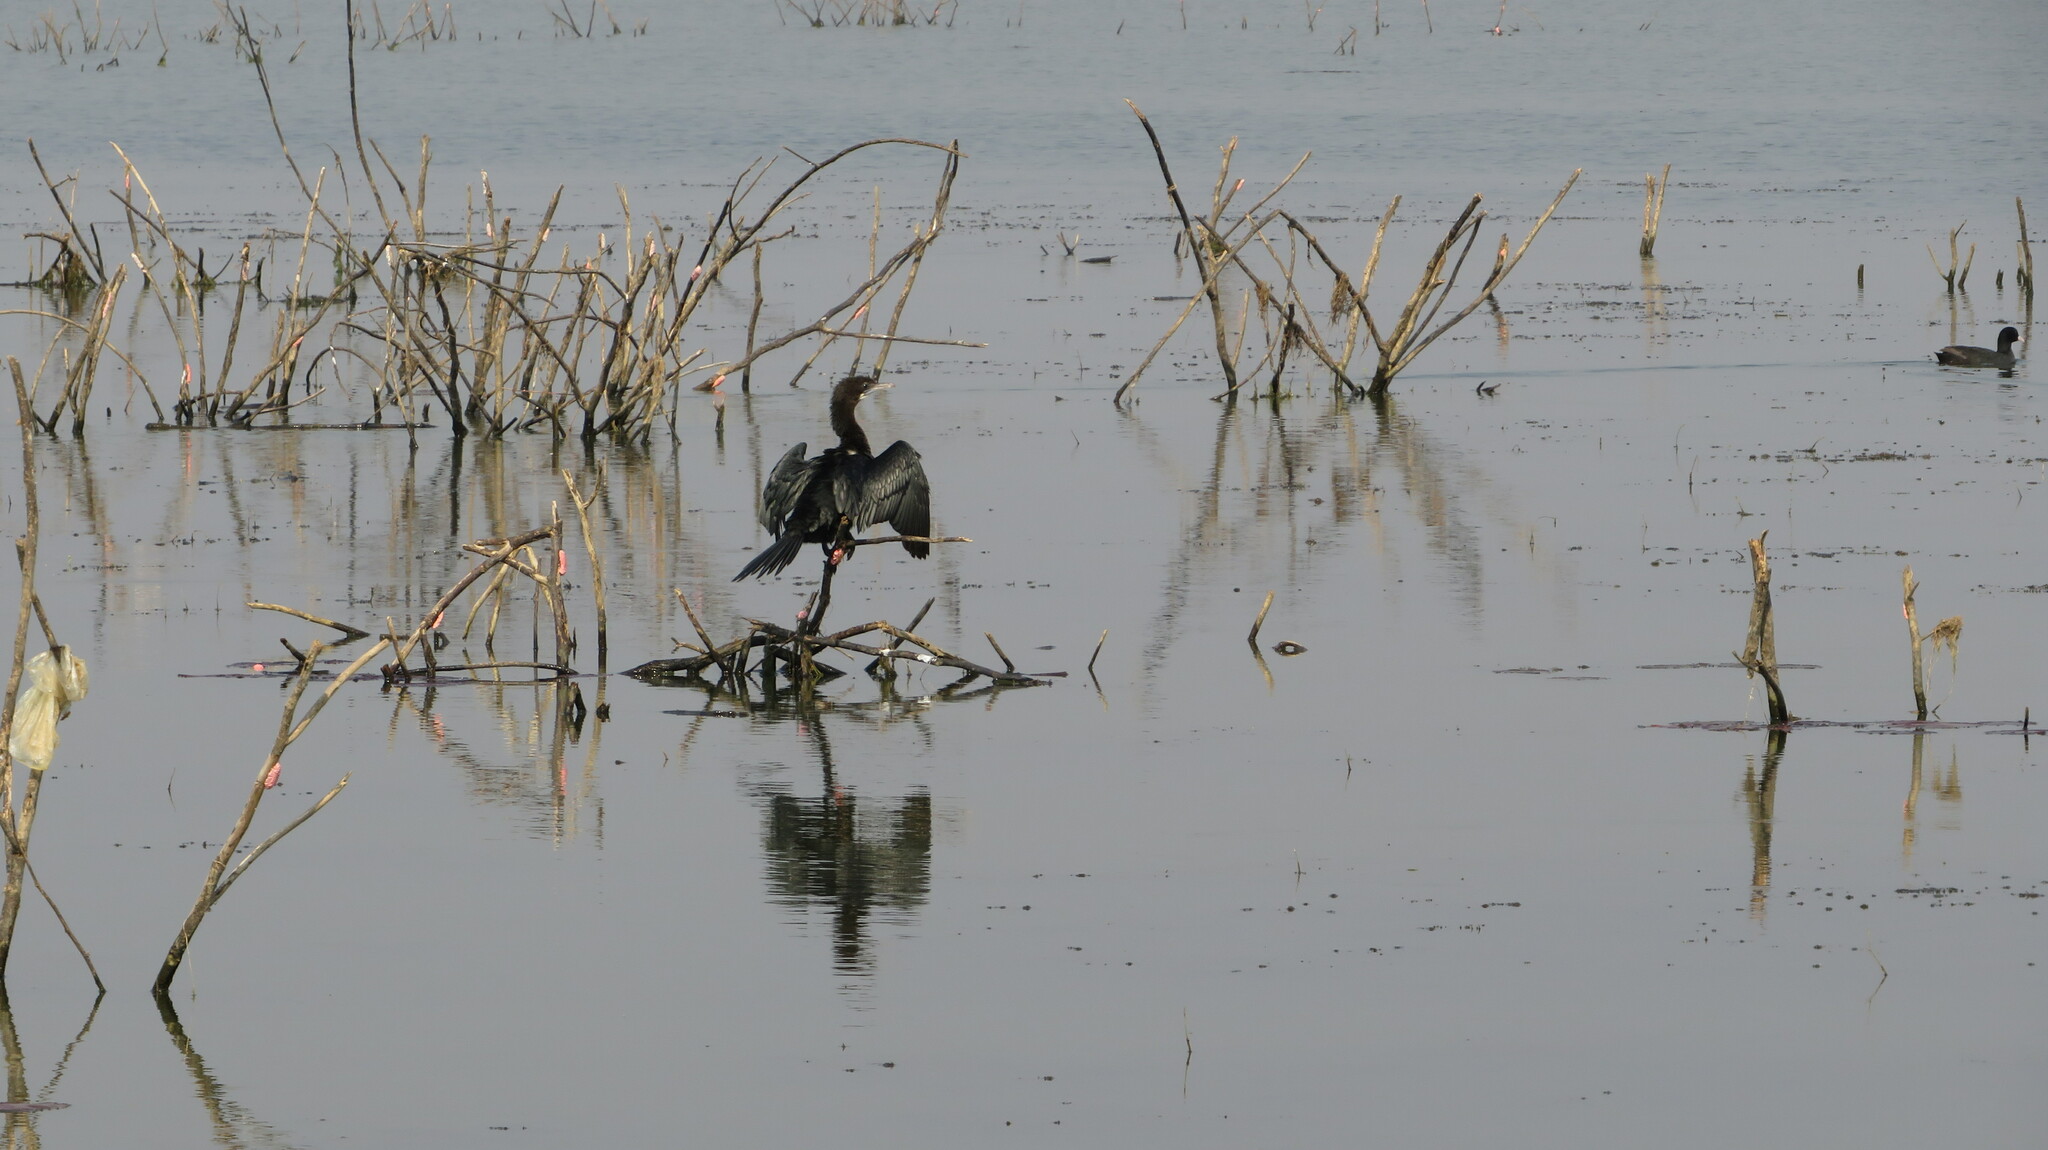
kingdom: Animalia
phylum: Chordata
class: Aves
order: Suliformes
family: Phalacrocoracidae
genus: Microcarbo
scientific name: Microcarbo niger
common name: Little cormorant
